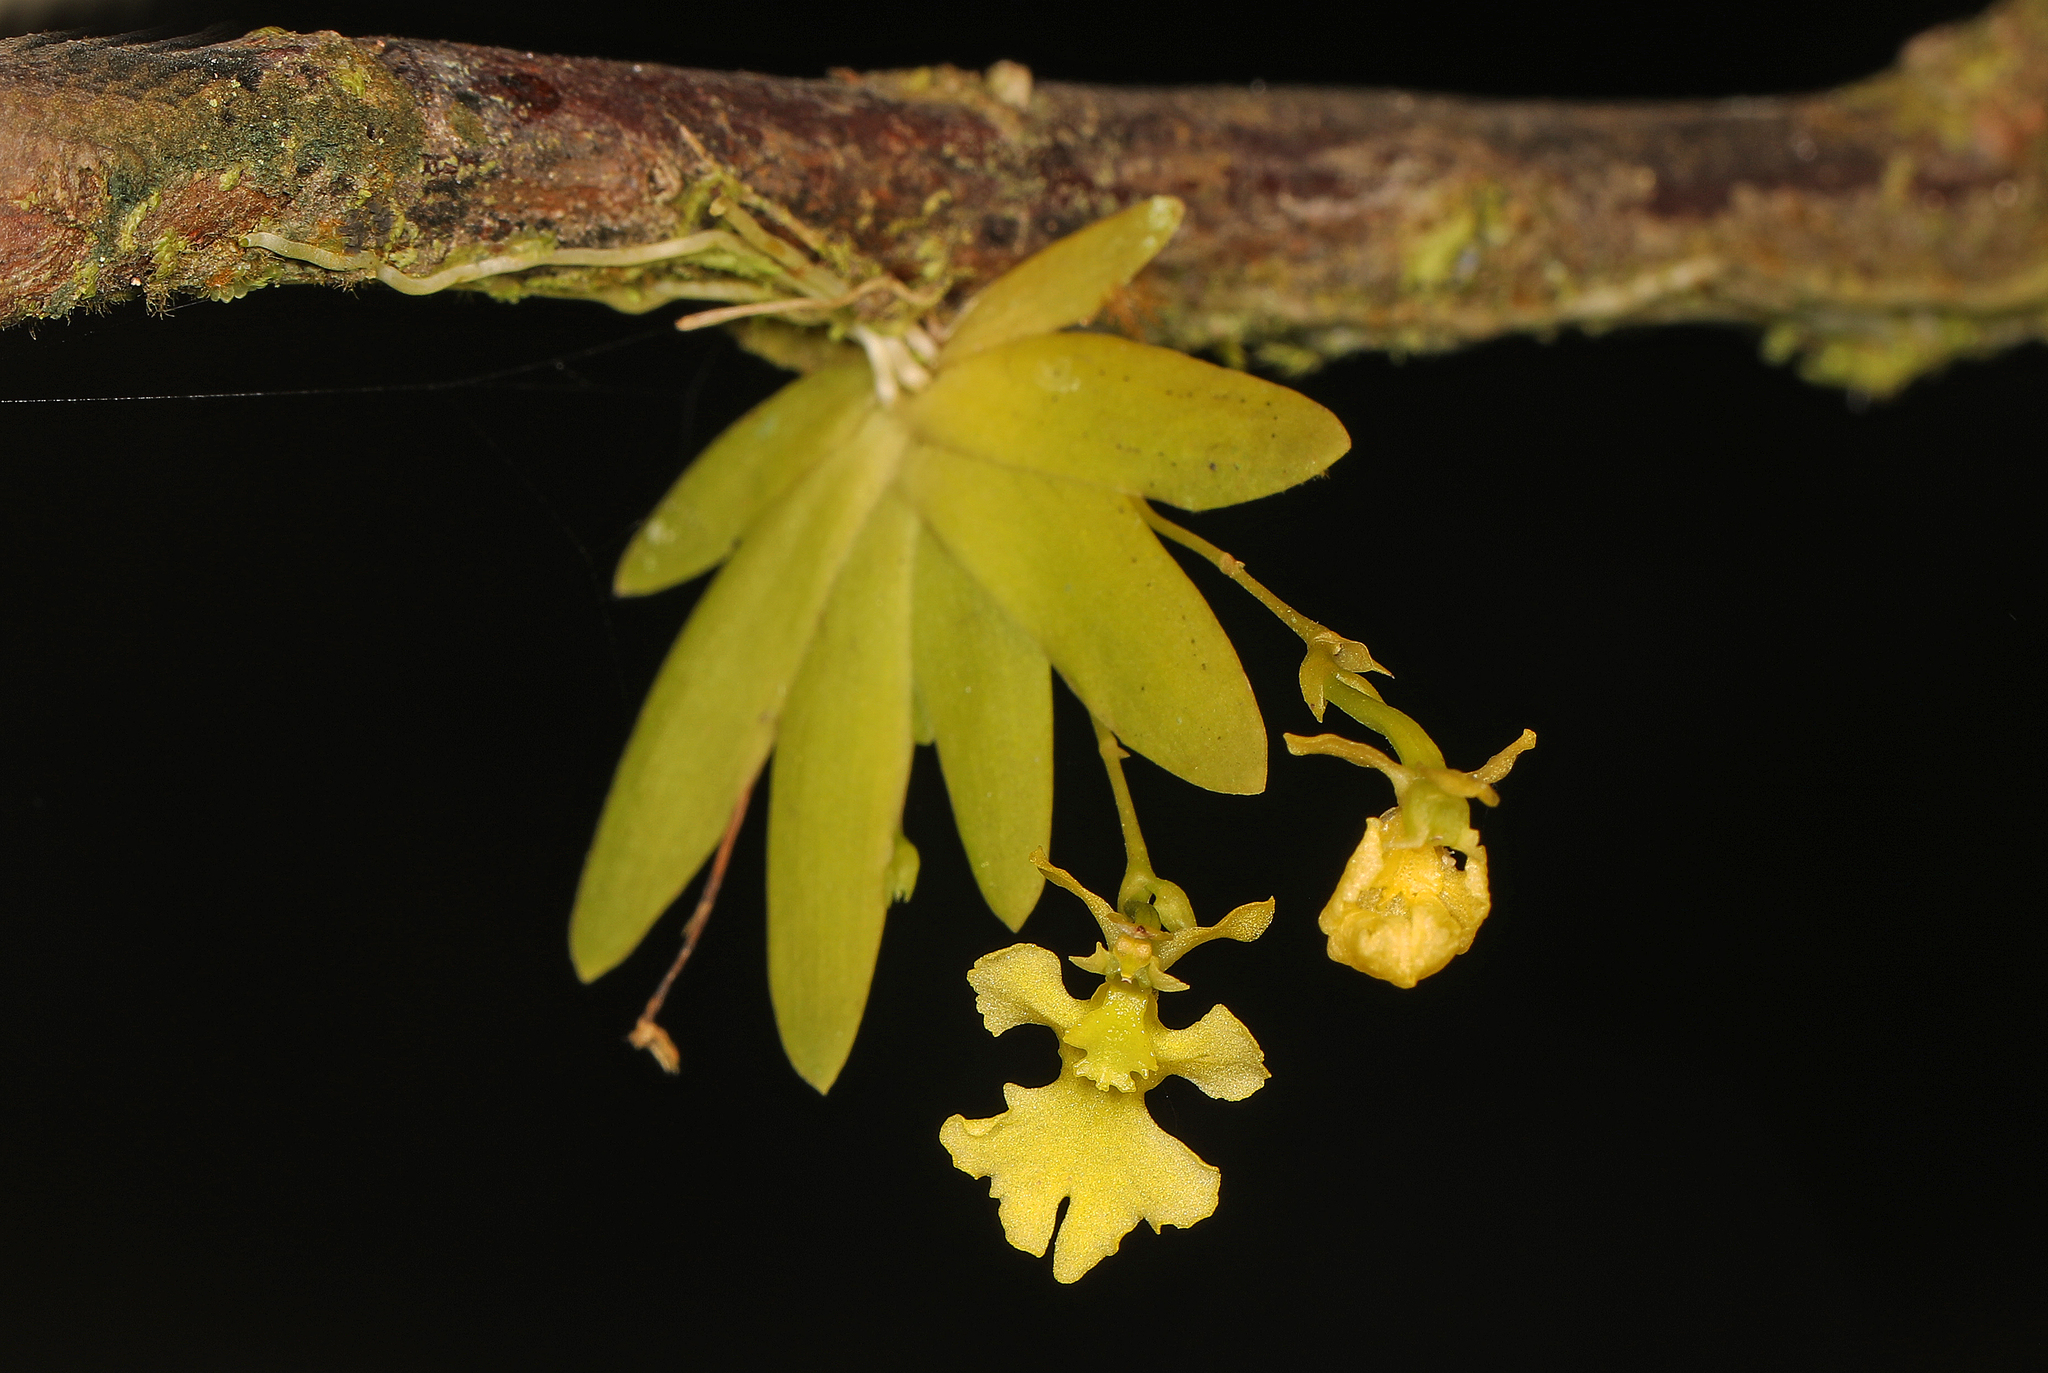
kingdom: Plantae
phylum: Tracheophyta
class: Liliopsida
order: Asparagales
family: Orchidaceae
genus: Erycina
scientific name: Erycina pusilla
